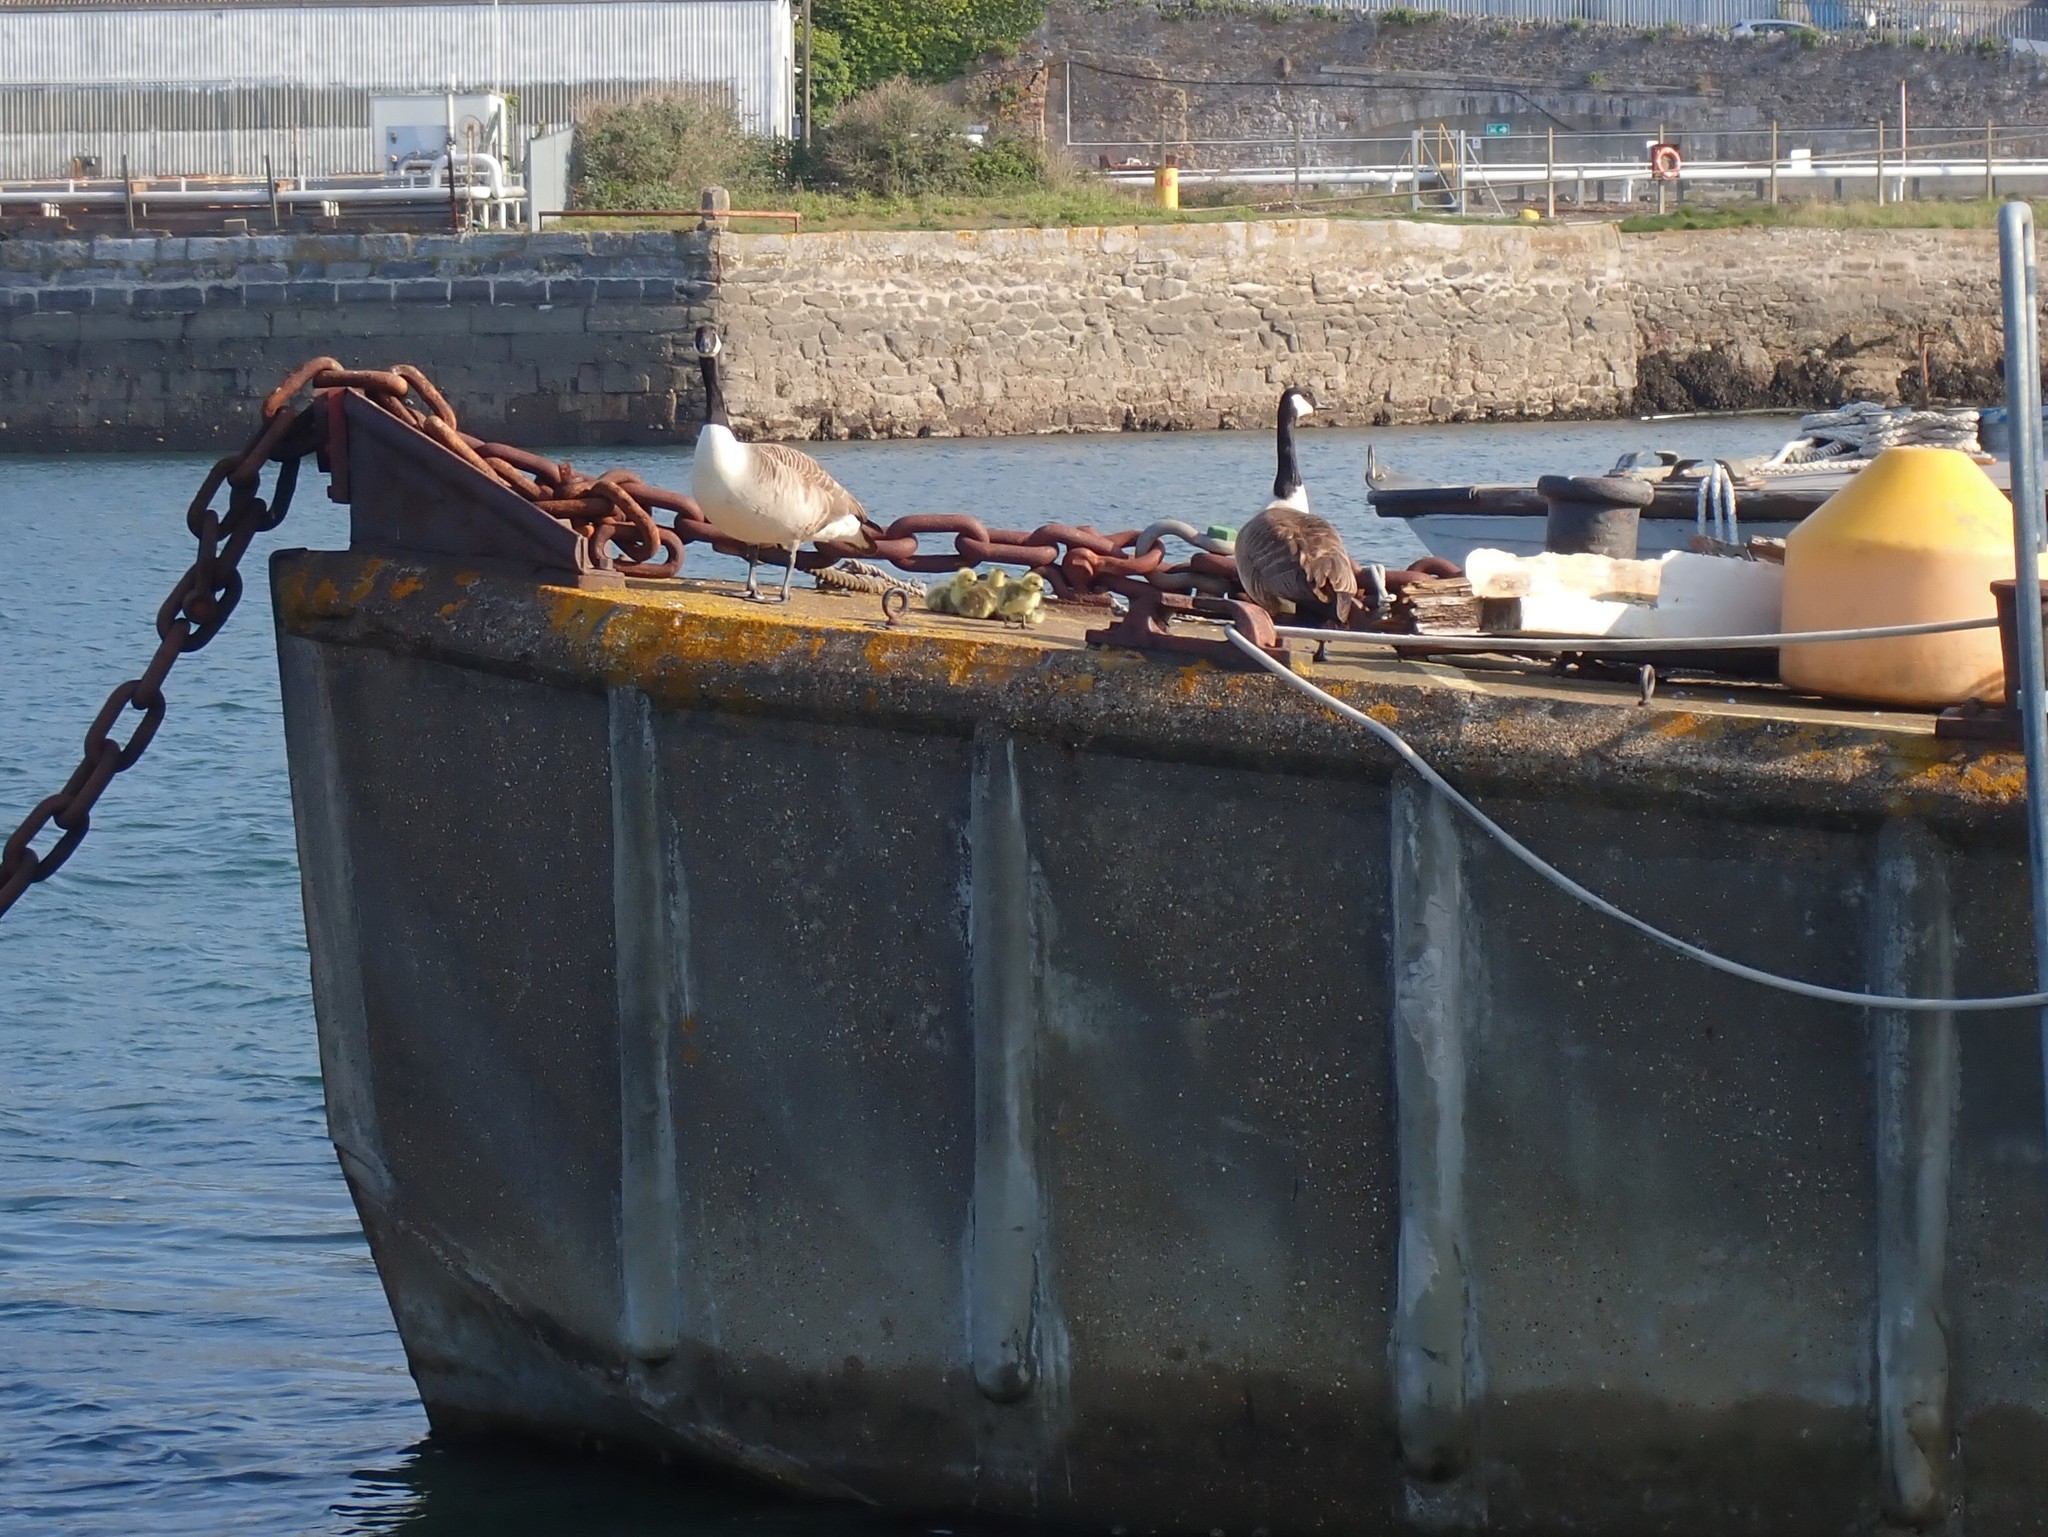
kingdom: Animalia
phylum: Chordata
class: Aves
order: Anseriformes
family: Anatidae
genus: Branta
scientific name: Branta canadensis
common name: Canada goose
